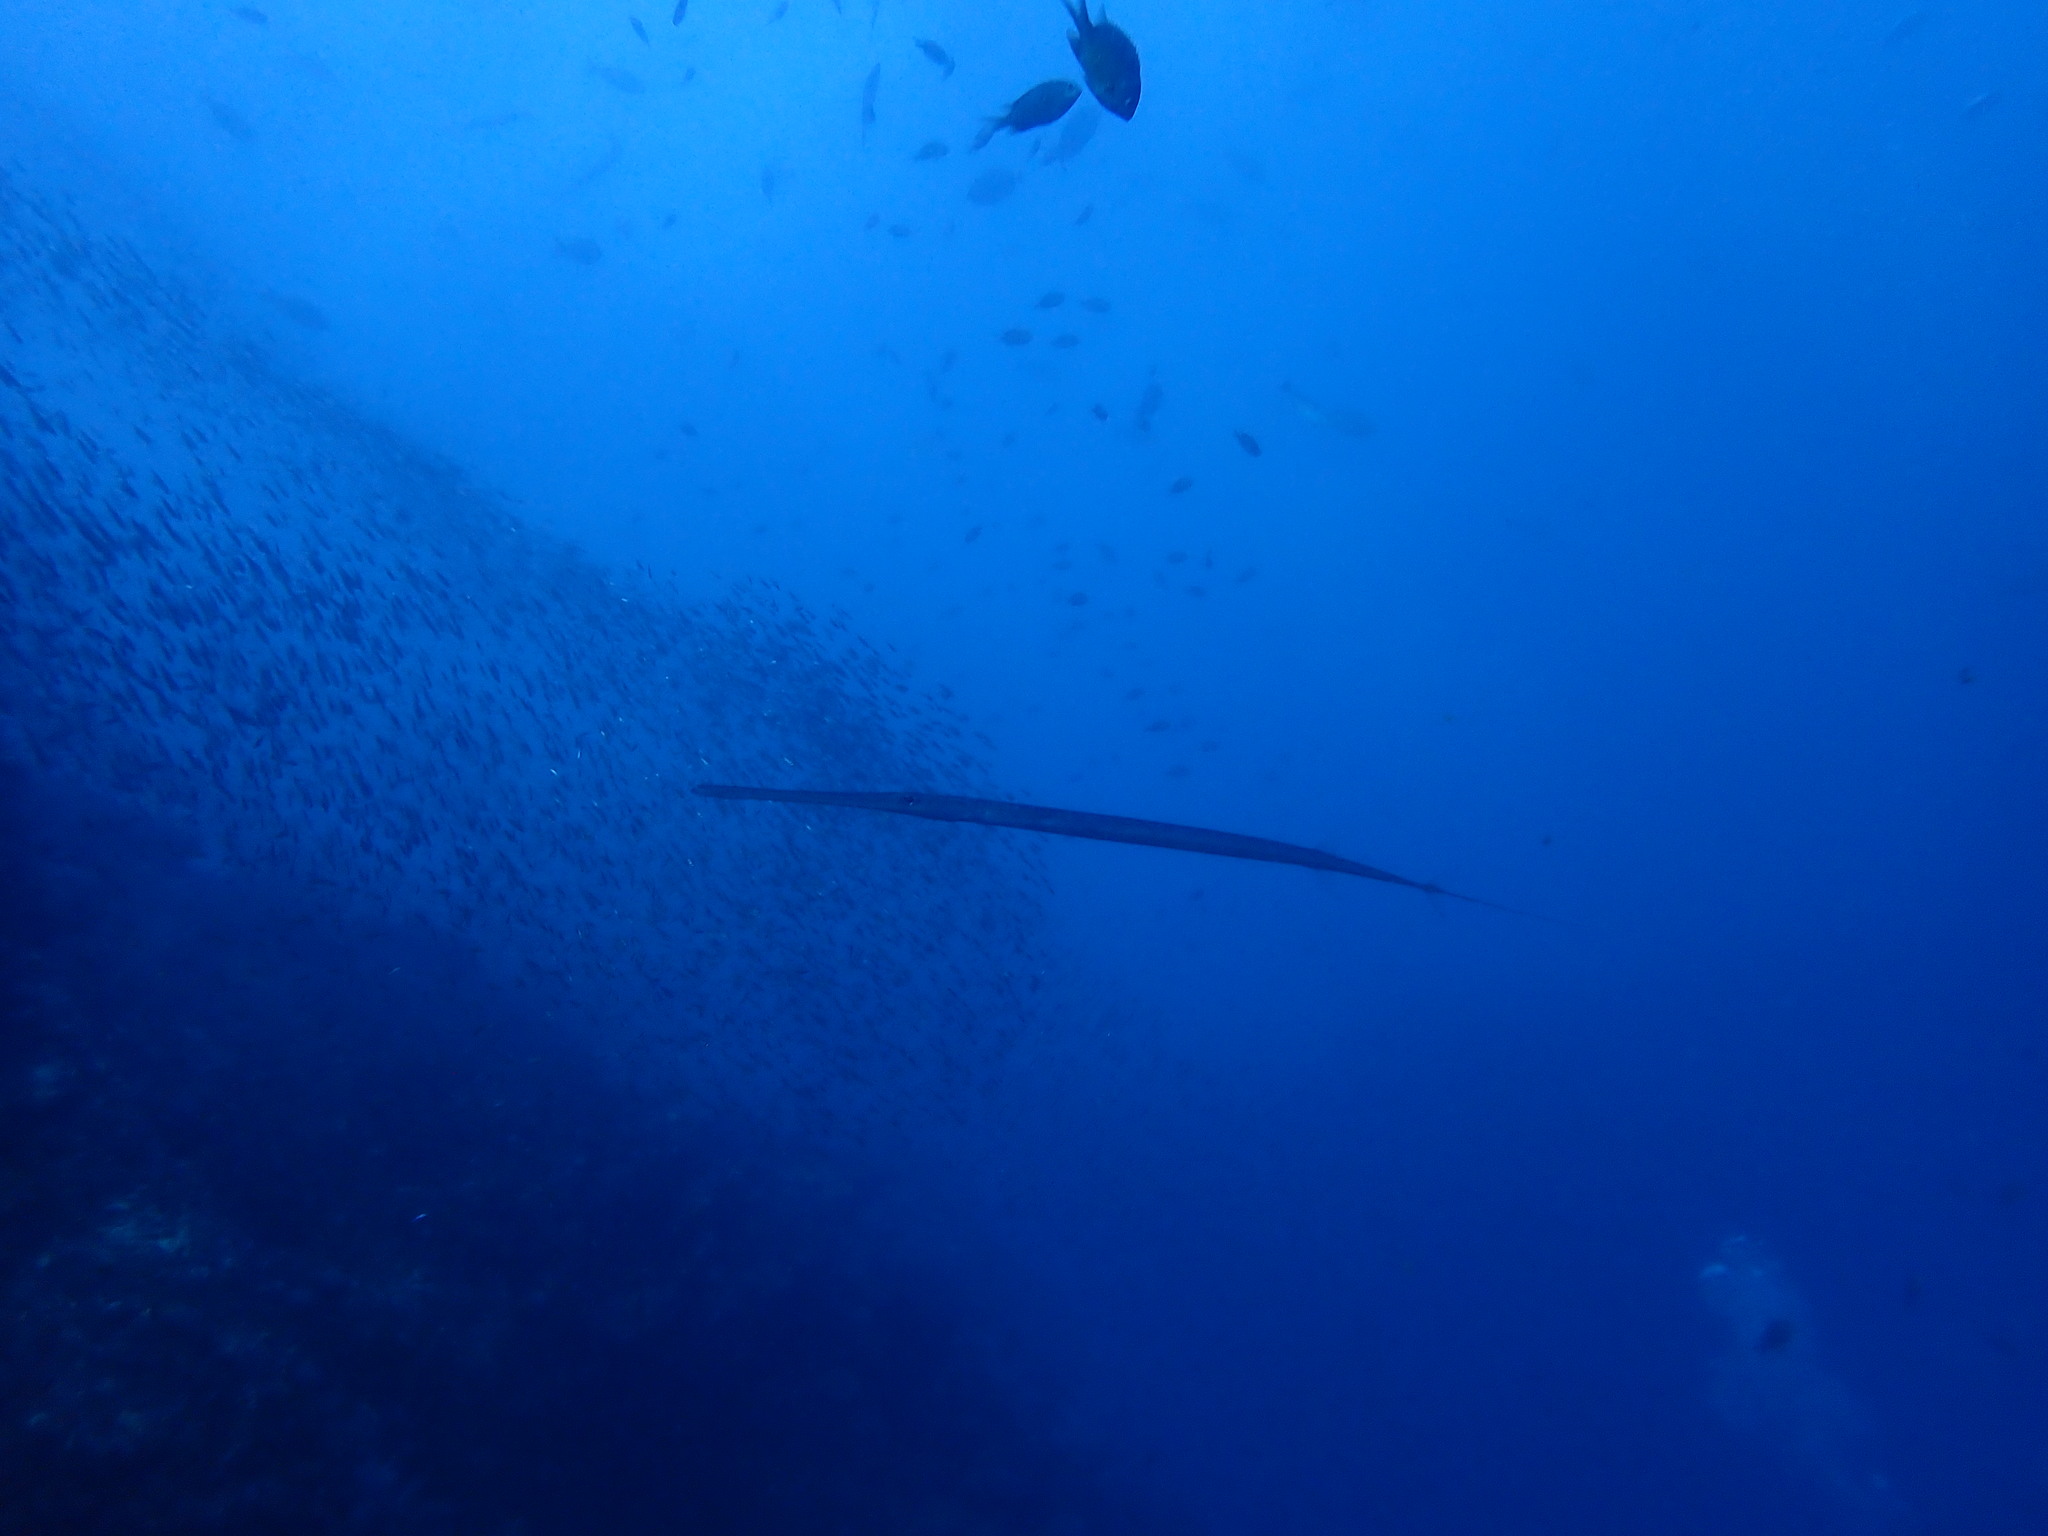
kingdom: Animalia
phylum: Chordata
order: Syngnathiformes
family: Fistulariidae
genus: Fistularia
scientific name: Fistularia commersonii
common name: Bluespotted cornetfish
